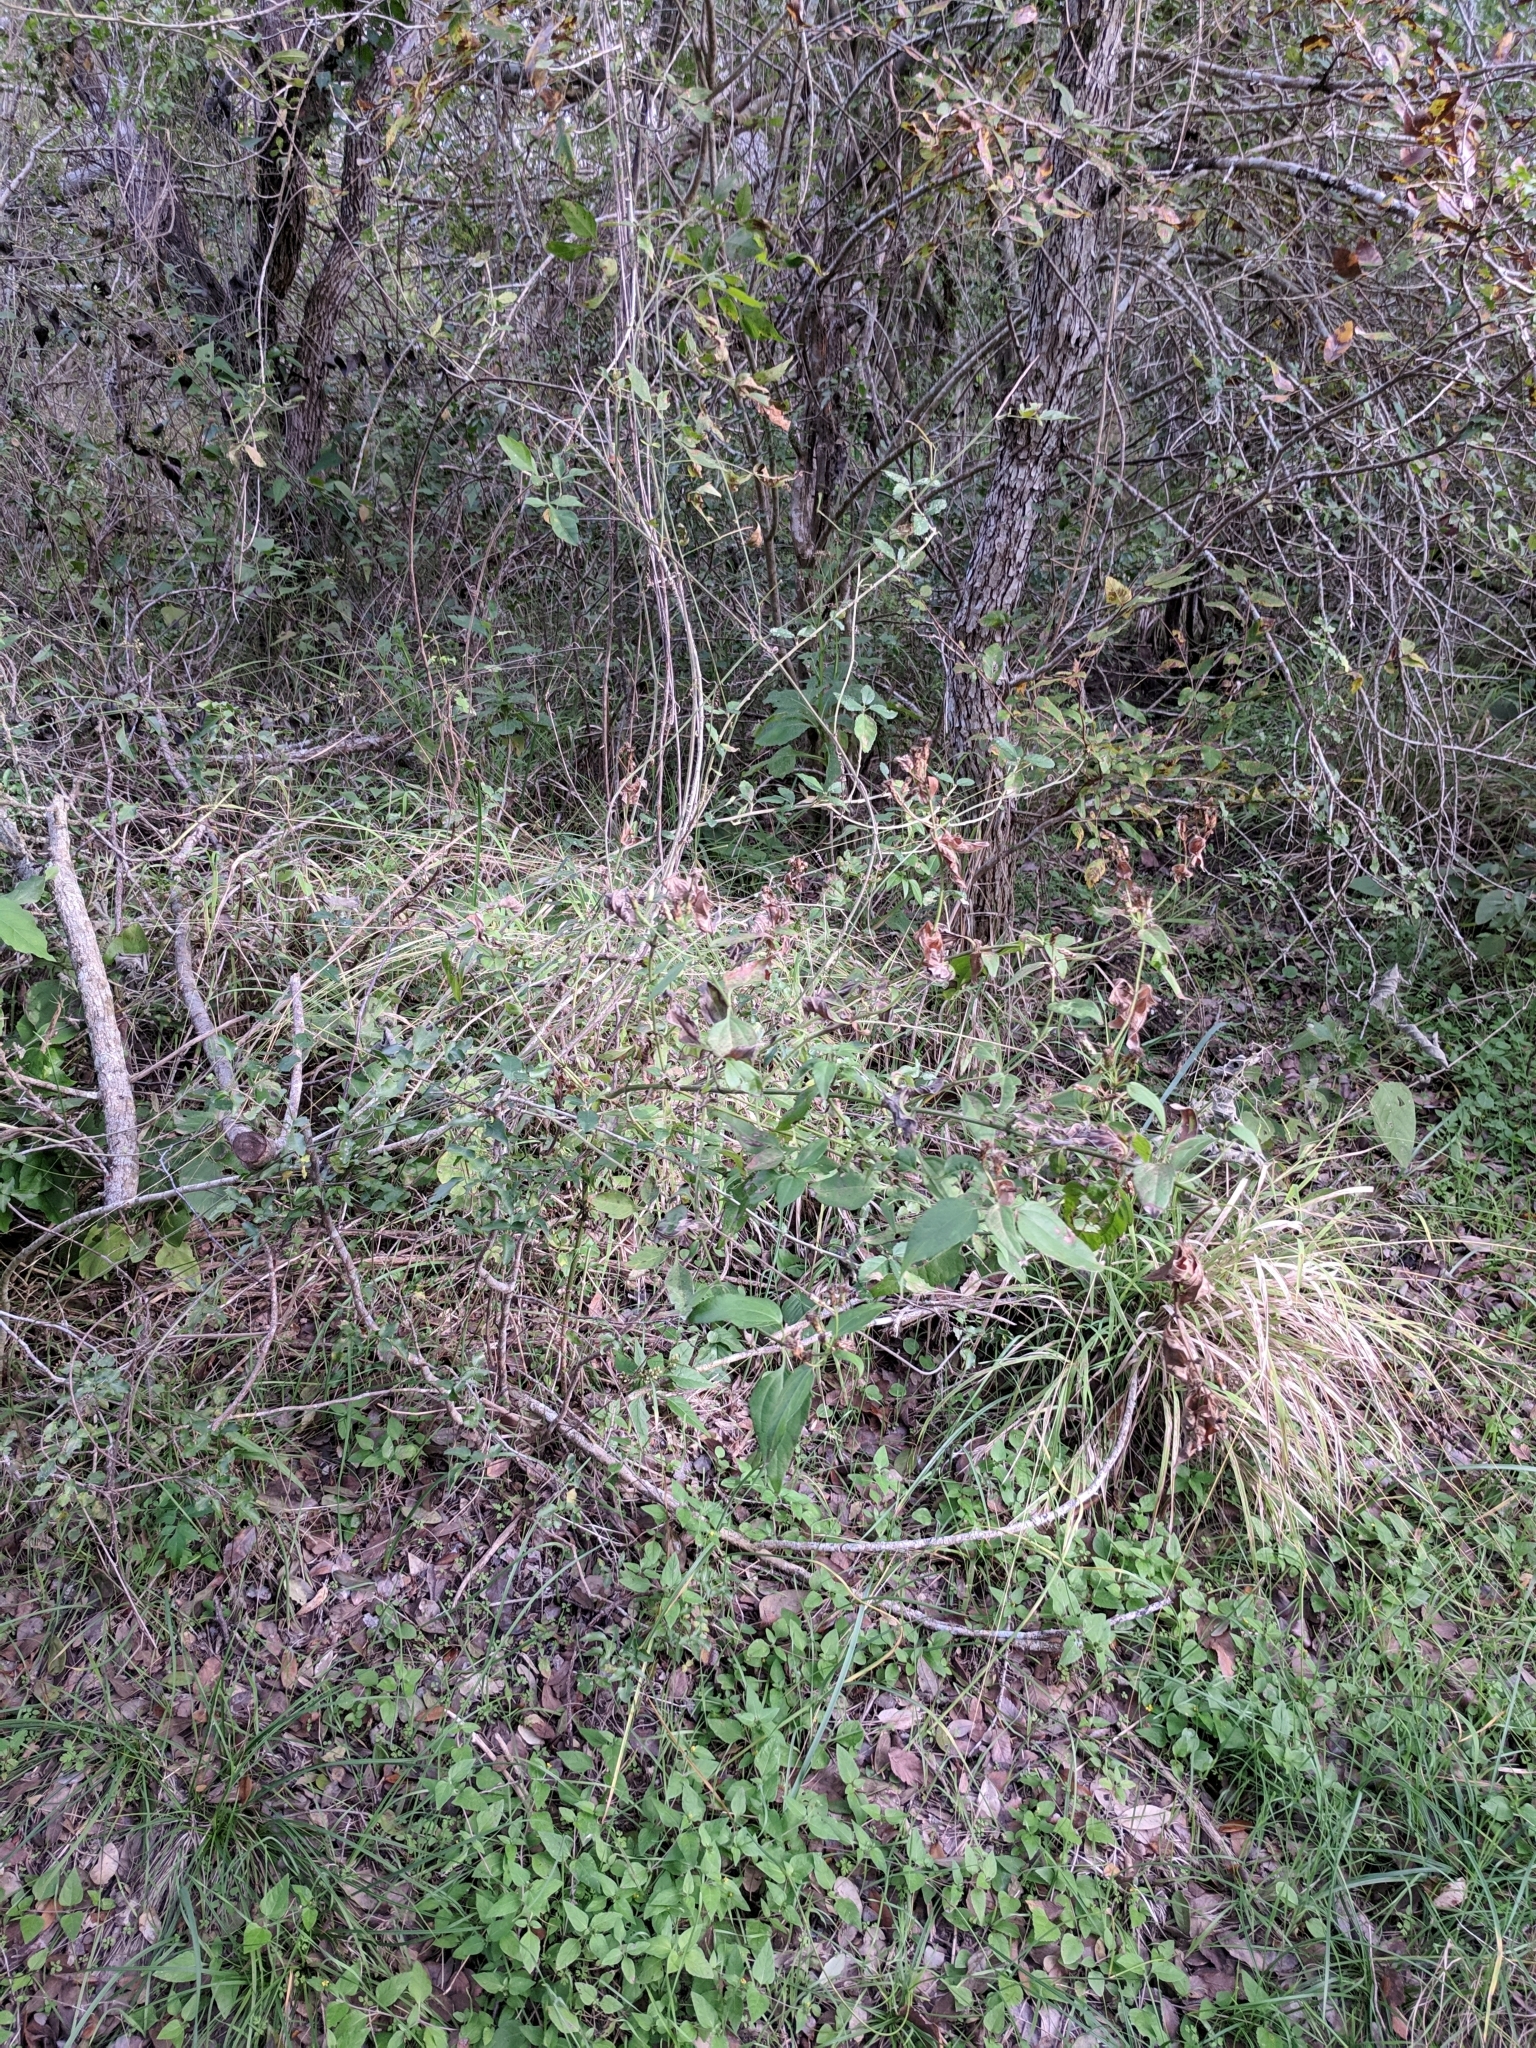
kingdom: Plantae
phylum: Tracheophyta
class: Magnoliopsida
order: Asterales
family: Asteraceae
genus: Chromolaena
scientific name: Chromolaena odorata
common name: Siamweed
